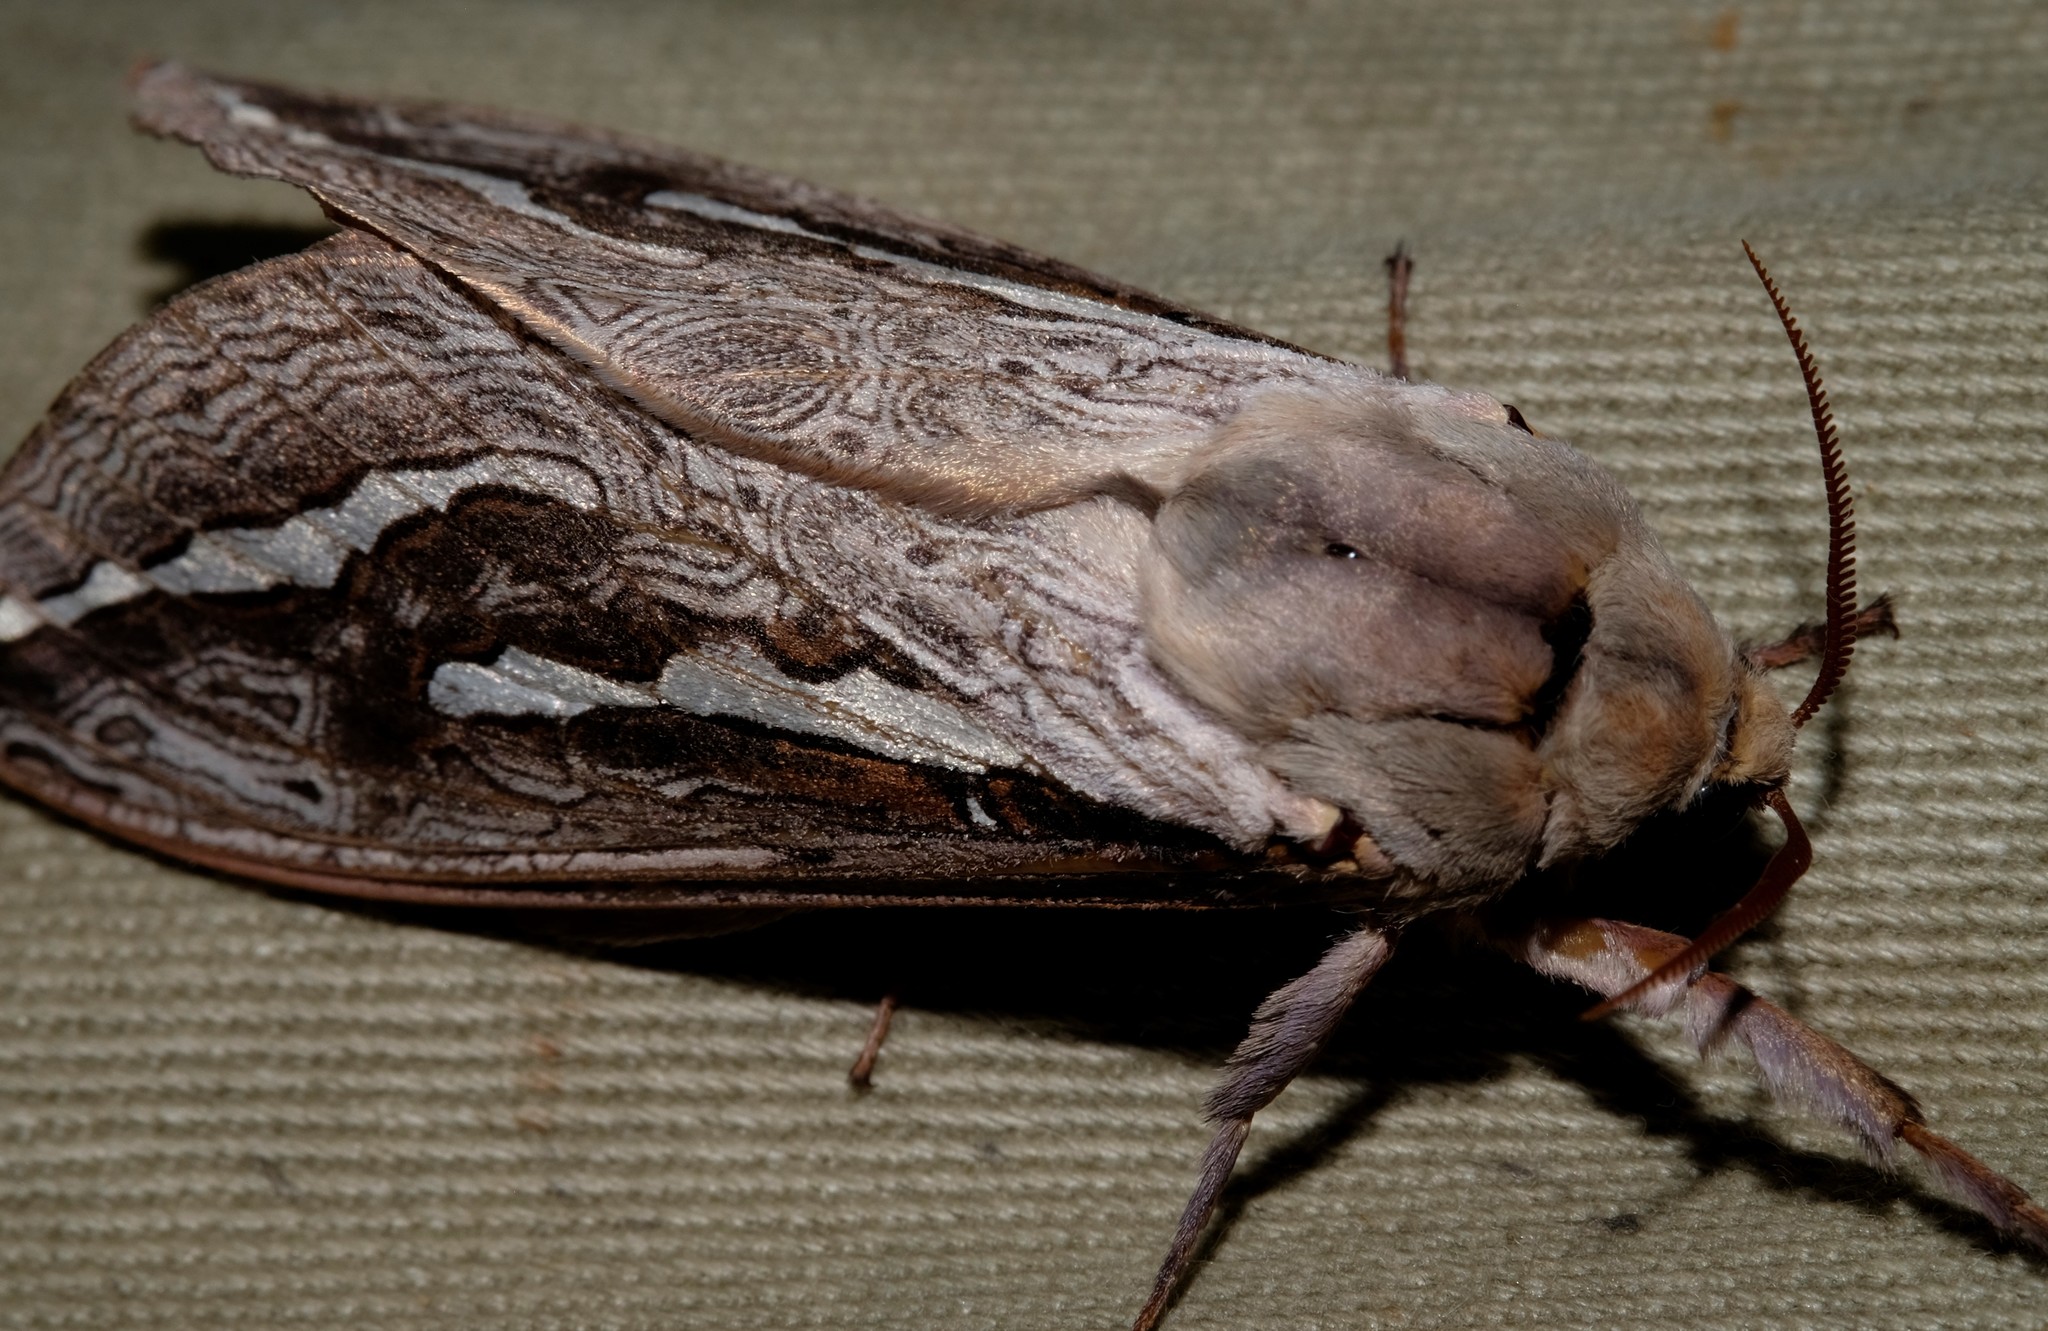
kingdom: Animalia
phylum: Arthropoda
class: Insecta
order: Lepidoptera
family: Hepialidae
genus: Abantiades
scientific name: Abantiades labyrinthicus
